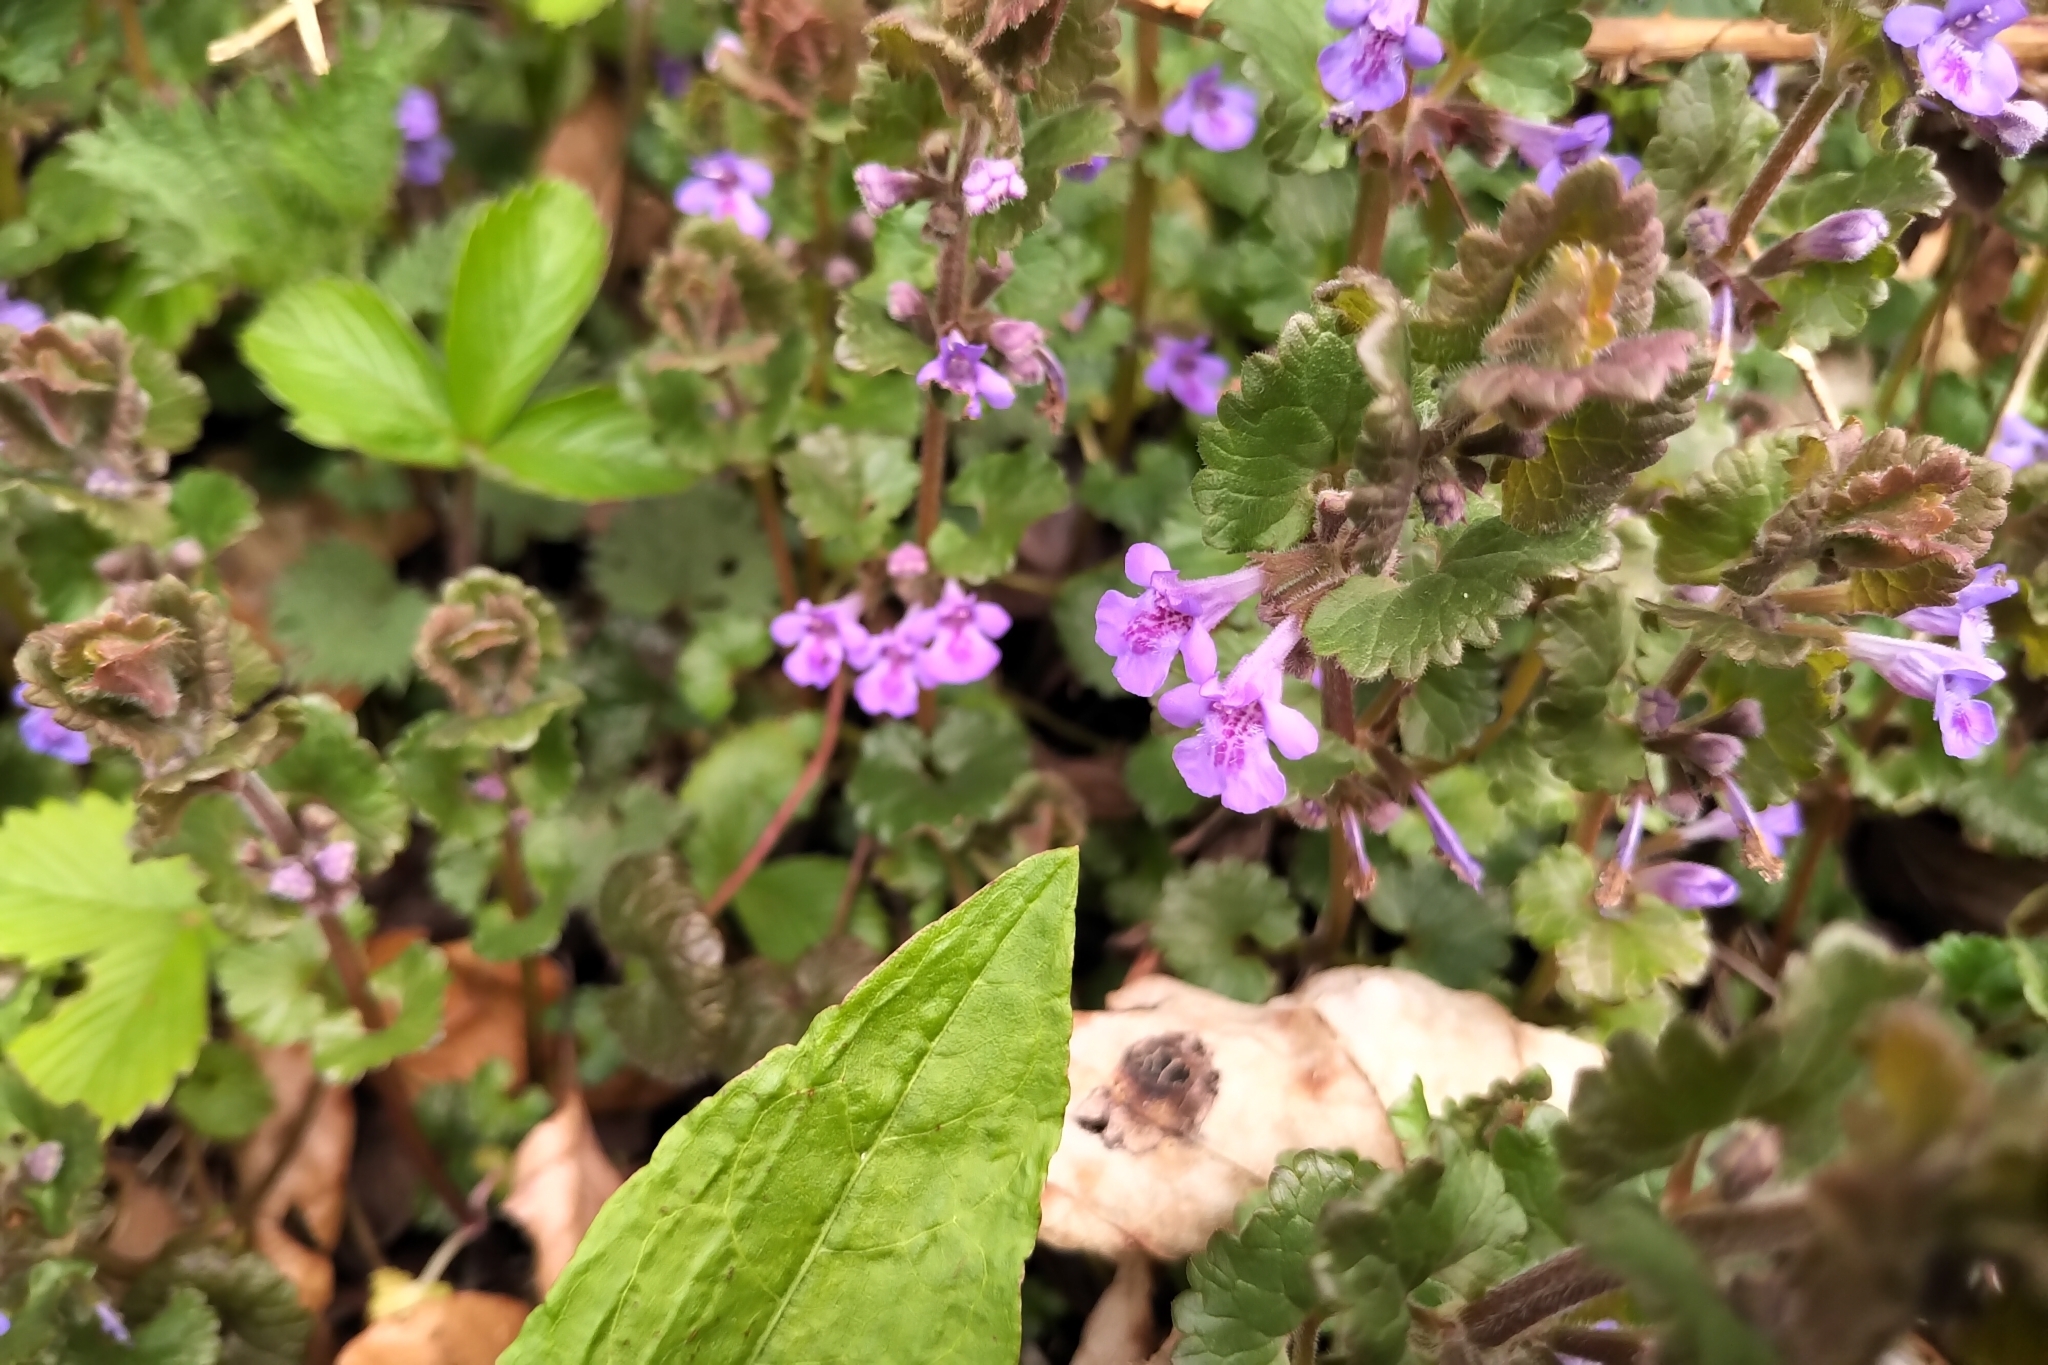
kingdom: Plantae
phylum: Tracheophyta
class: Magnoliopsida
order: Lamiales
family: Lamiaceae
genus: Glechoma
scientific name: Glechoma hederacea
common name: Ground ivy
